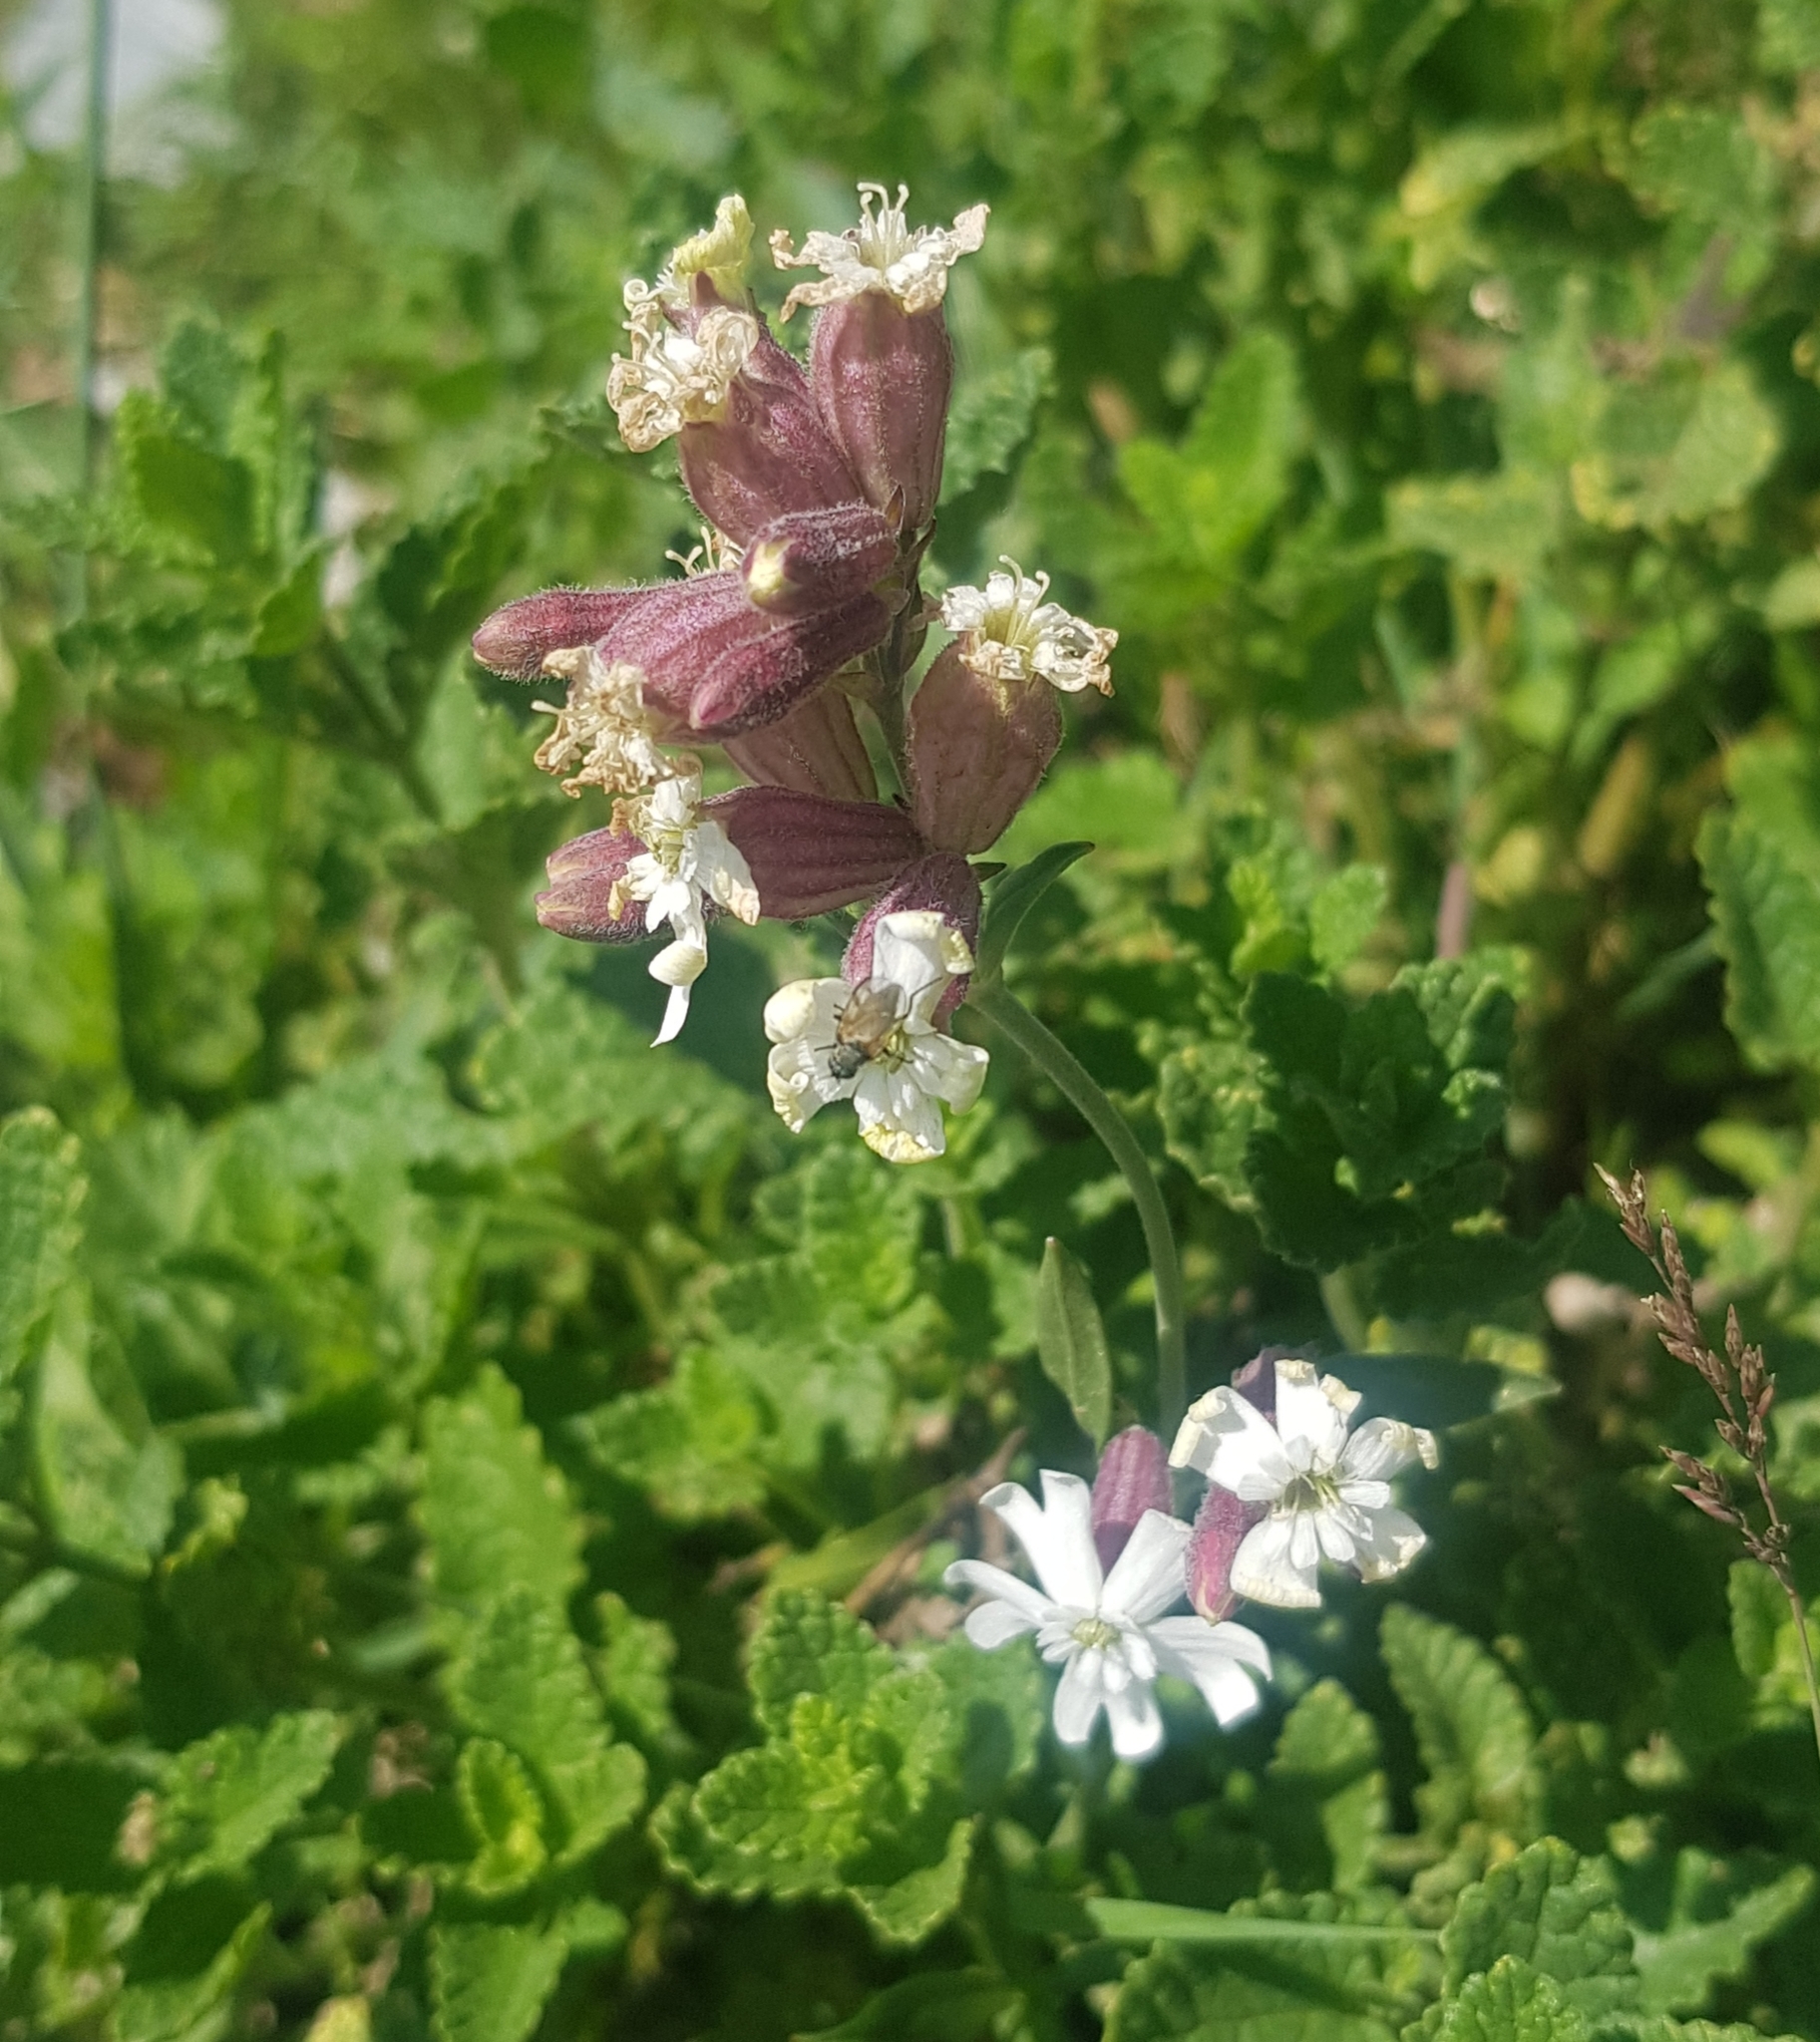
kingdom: Plantae
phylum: Tracheophyta
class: Magnoliopsida
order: Caryophyllales
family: Caryophyllaceae
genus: Silene
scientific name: Silene amoena
